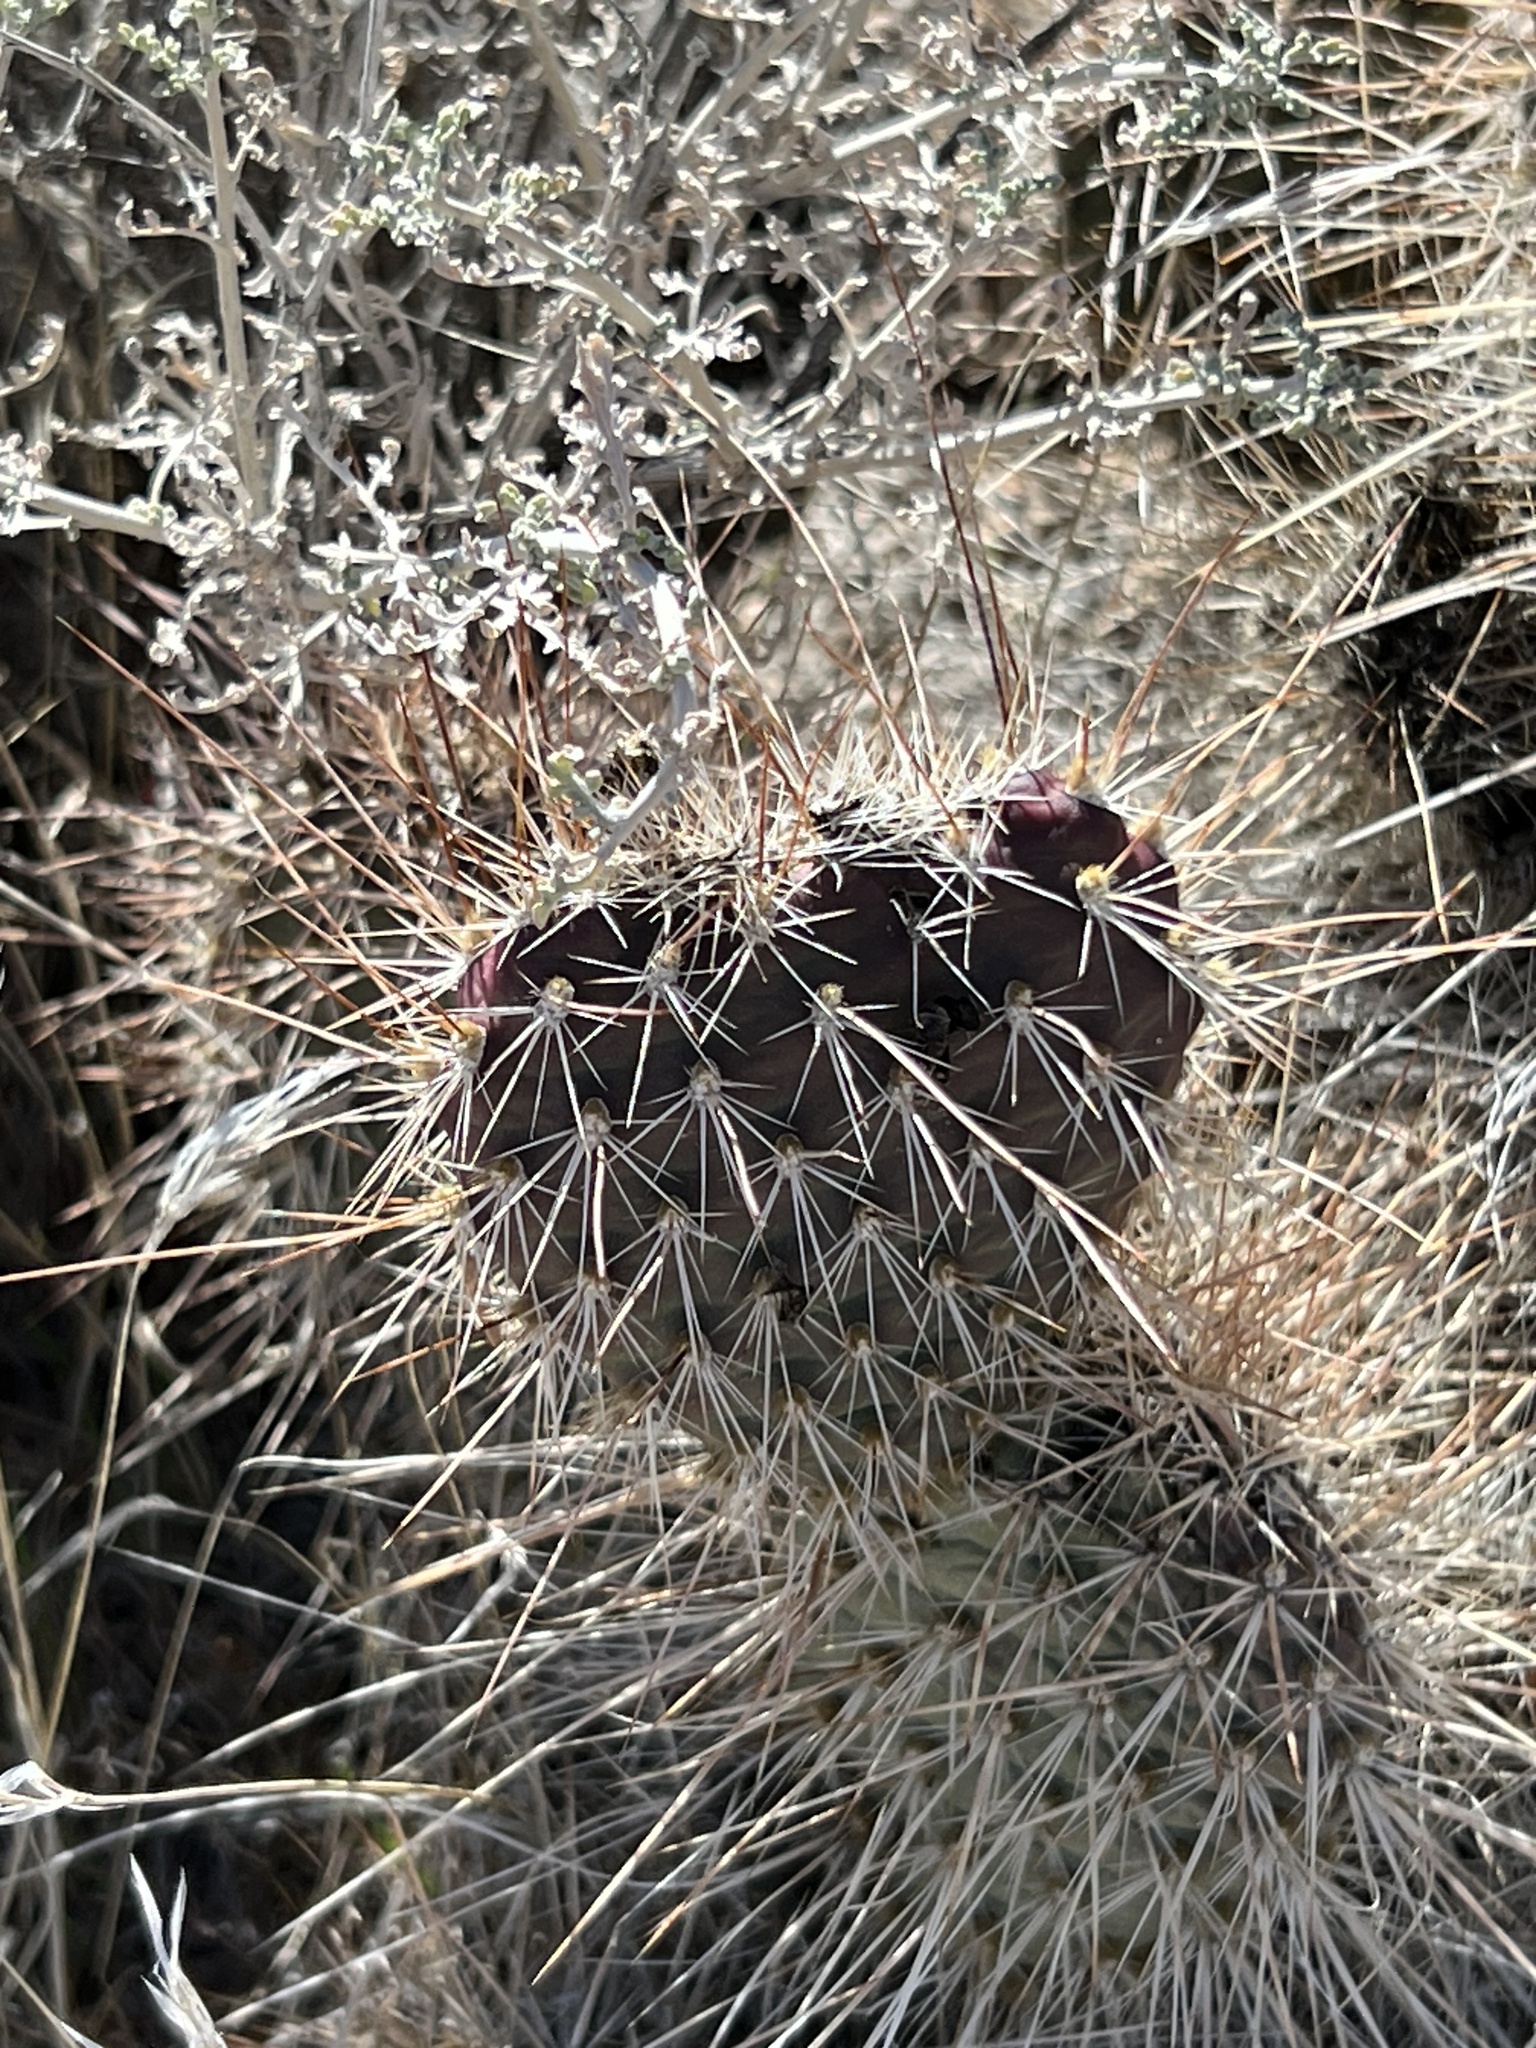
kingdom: Plantae
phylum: Tracheophyta
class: Magnoliopsida
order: Caryophyllales
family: Cactaceae
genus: Opuntia
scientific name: Opuntia polyacantha
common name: Plains prickly-pear
